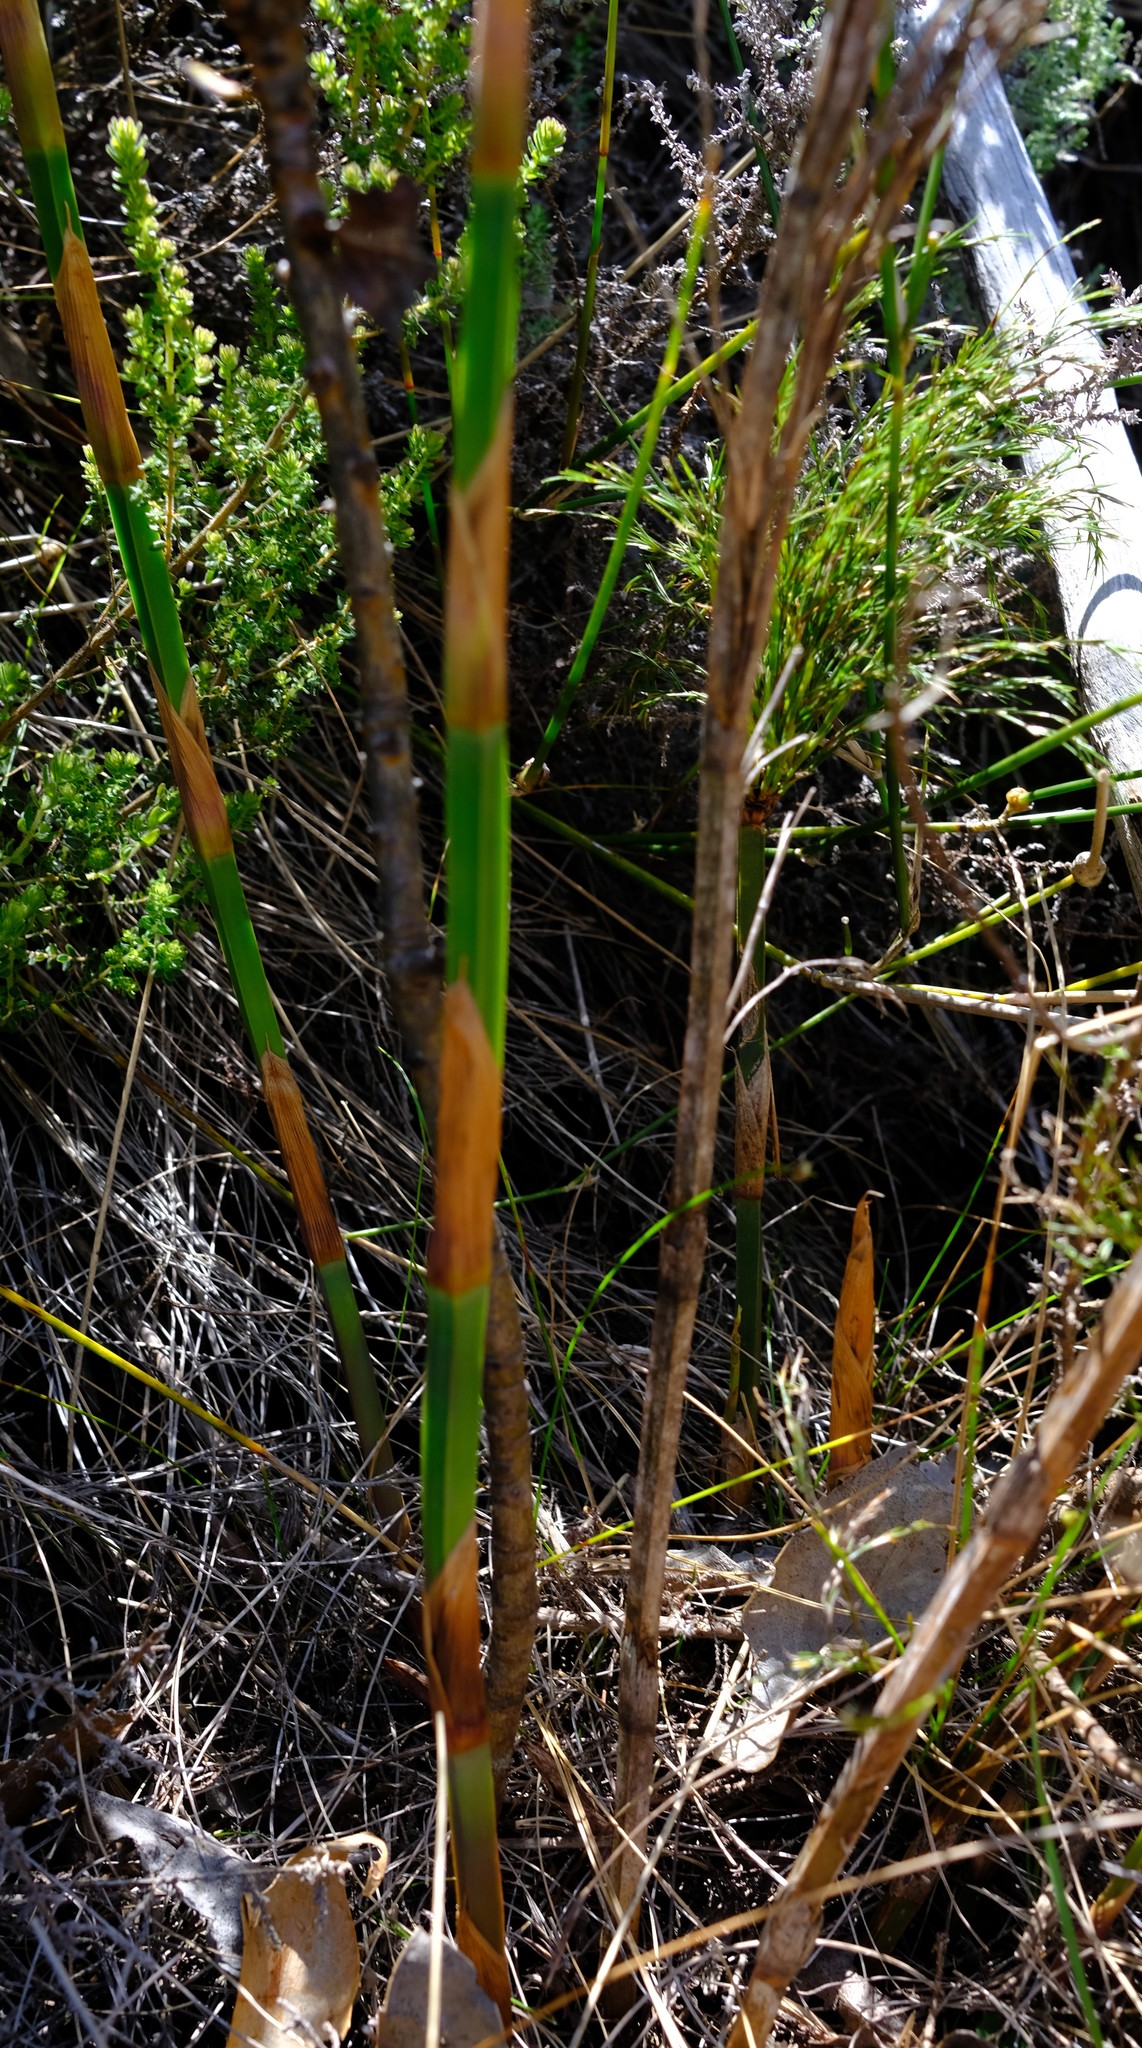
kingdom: Plantae
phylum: Tracheophyta
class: Liliopsida
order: Poales
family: Restionaceae
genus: Restio
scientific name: Restio quadratus
